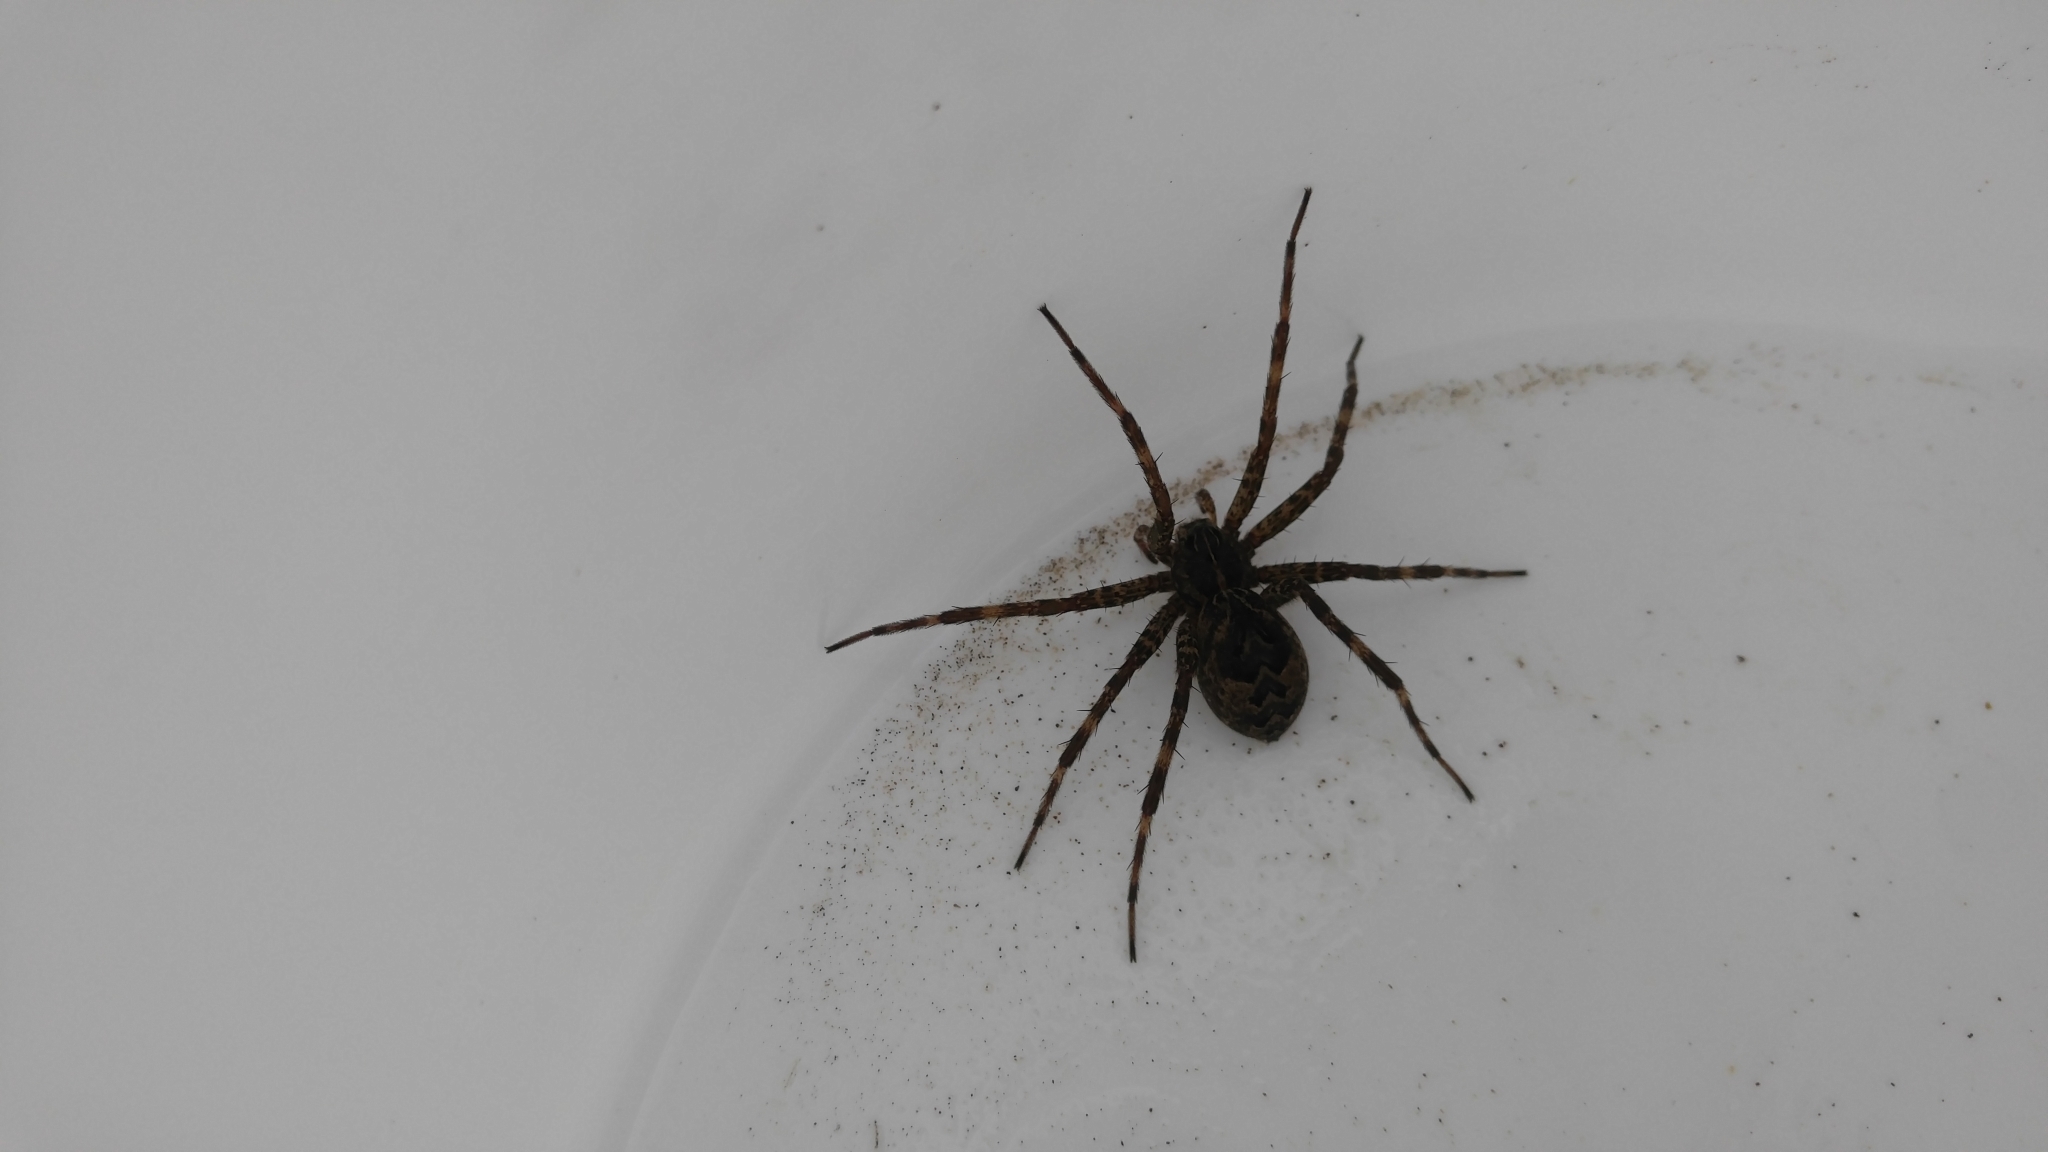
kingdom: Animalia
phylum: Arthropoda
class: Arachnida
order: Araneae
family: Pisauridae
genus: Dolomedes
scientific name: Dolomedes scriptus
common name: Striped fishing spider
